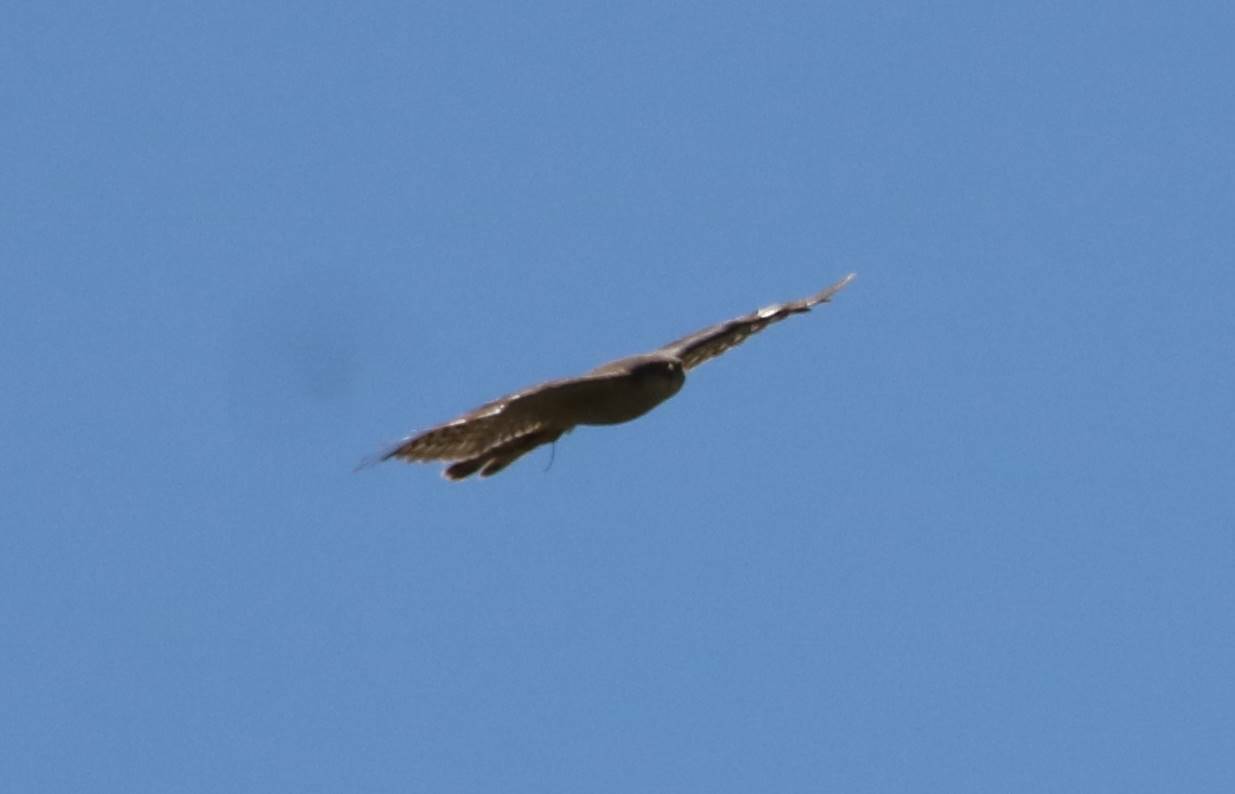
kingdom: Animalia
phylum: Chordata
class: Aves
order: Accipitriformes
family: Accipitridae
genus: Accipiter
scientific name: Accipiter nisus
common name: Eurasian sparrowhawk
